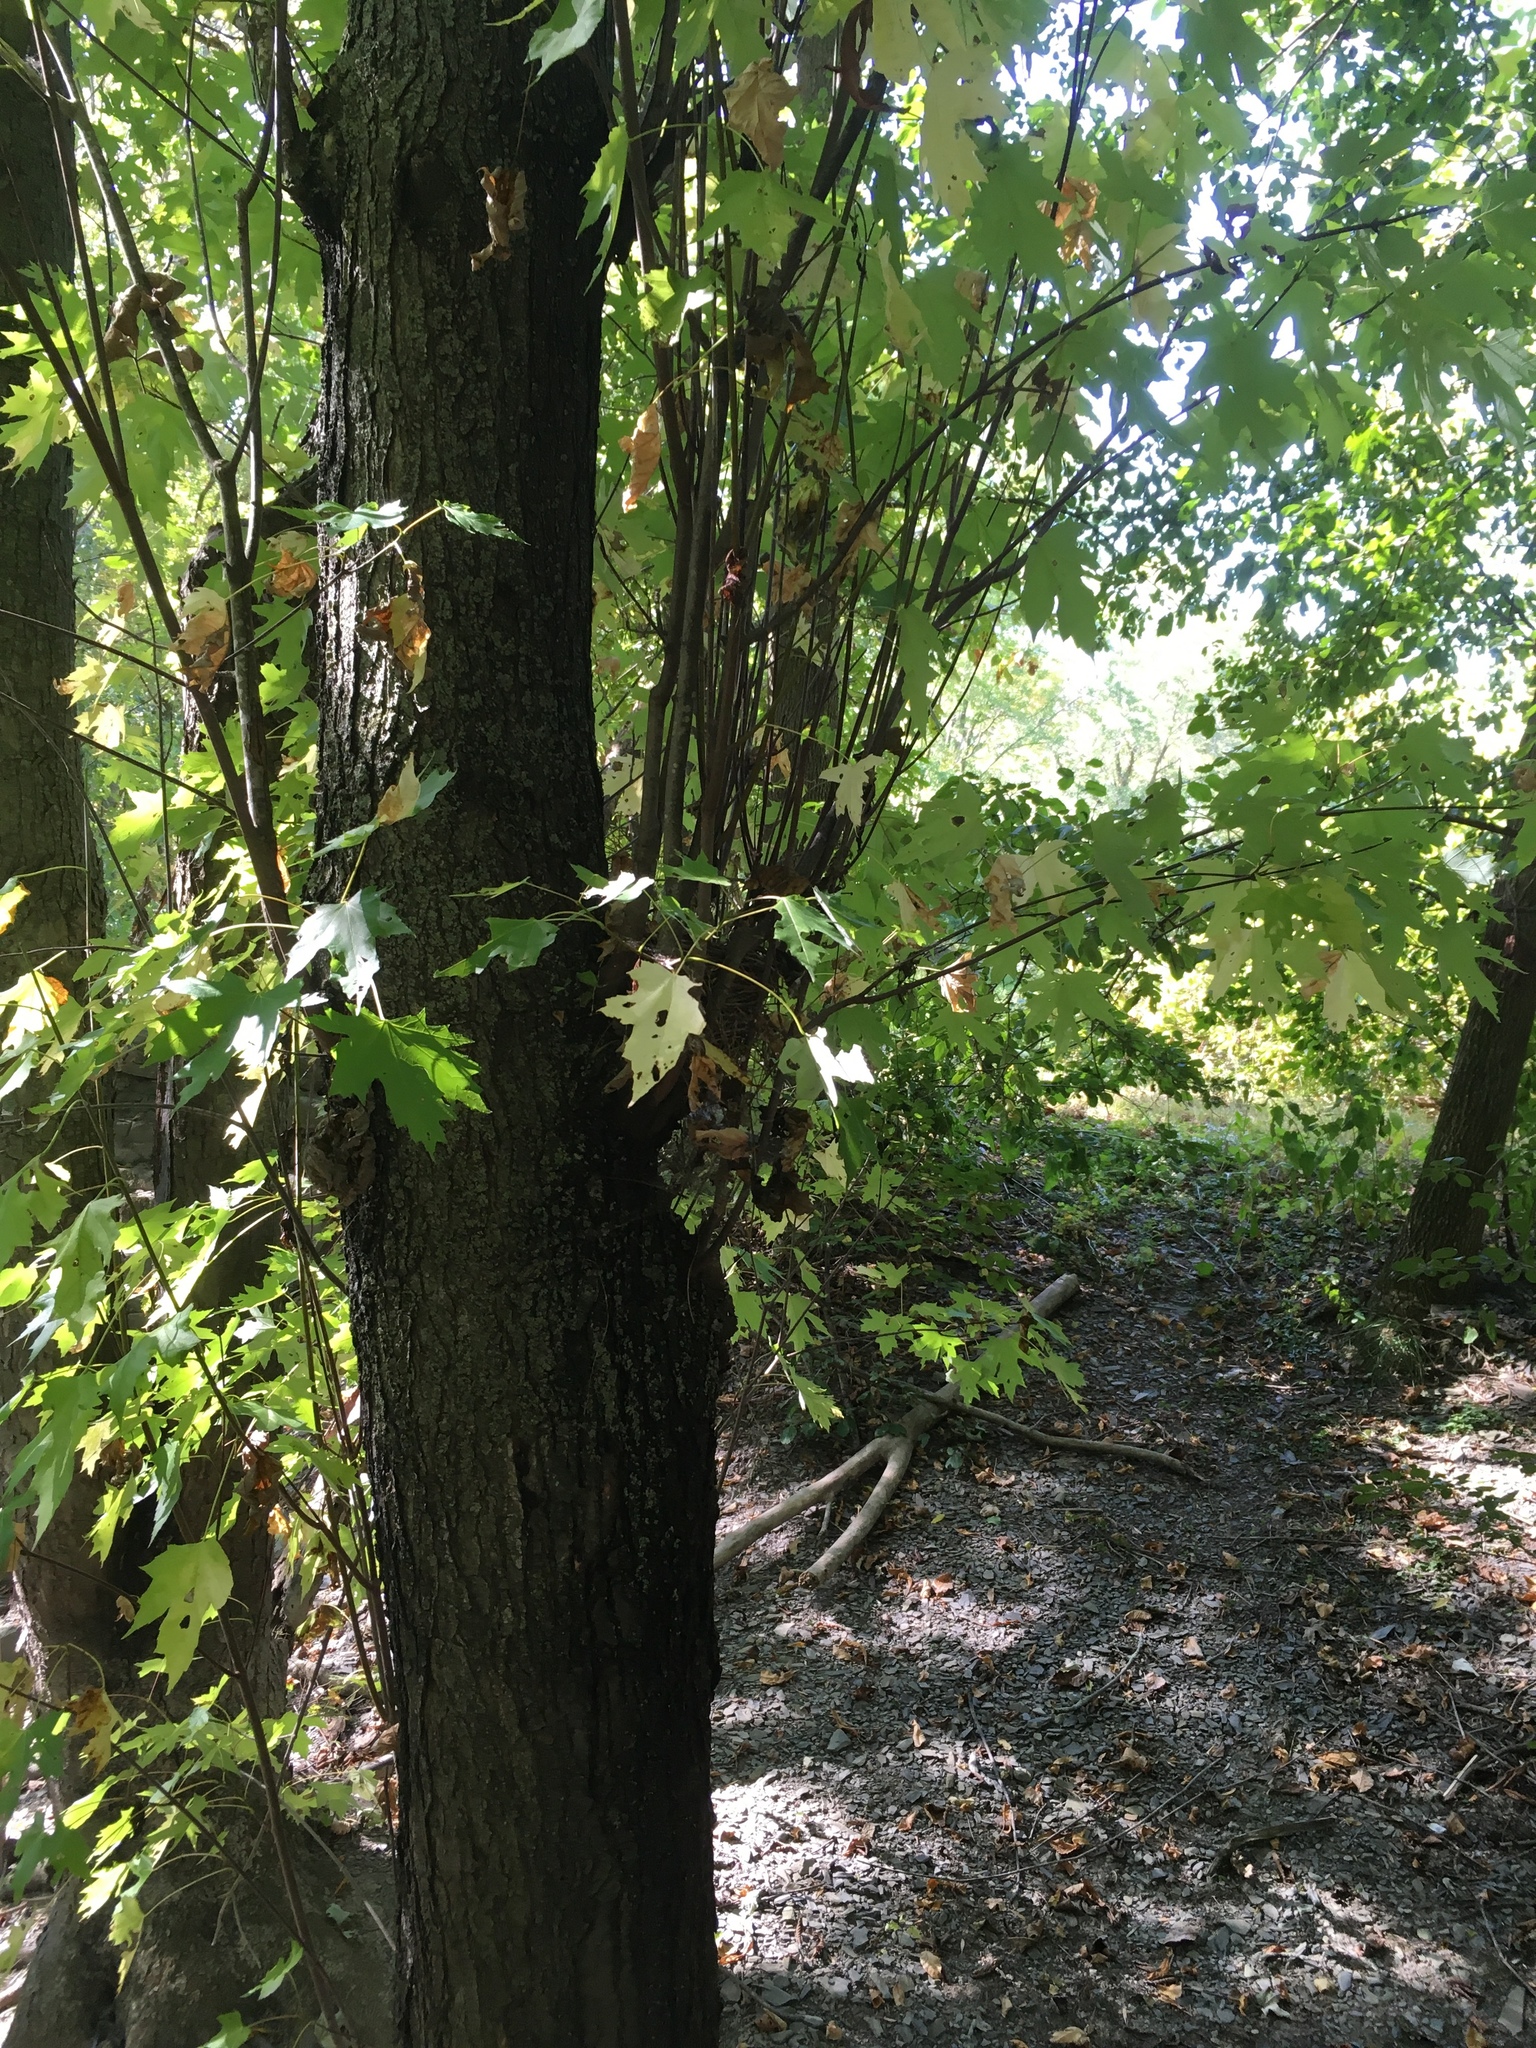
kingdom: Plantae
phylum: Tracheophyta
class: Magnoliopsida
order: Sapindales
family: Sapindaceae
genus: Acer
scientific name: Acer saccharinum
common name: Silver maple
